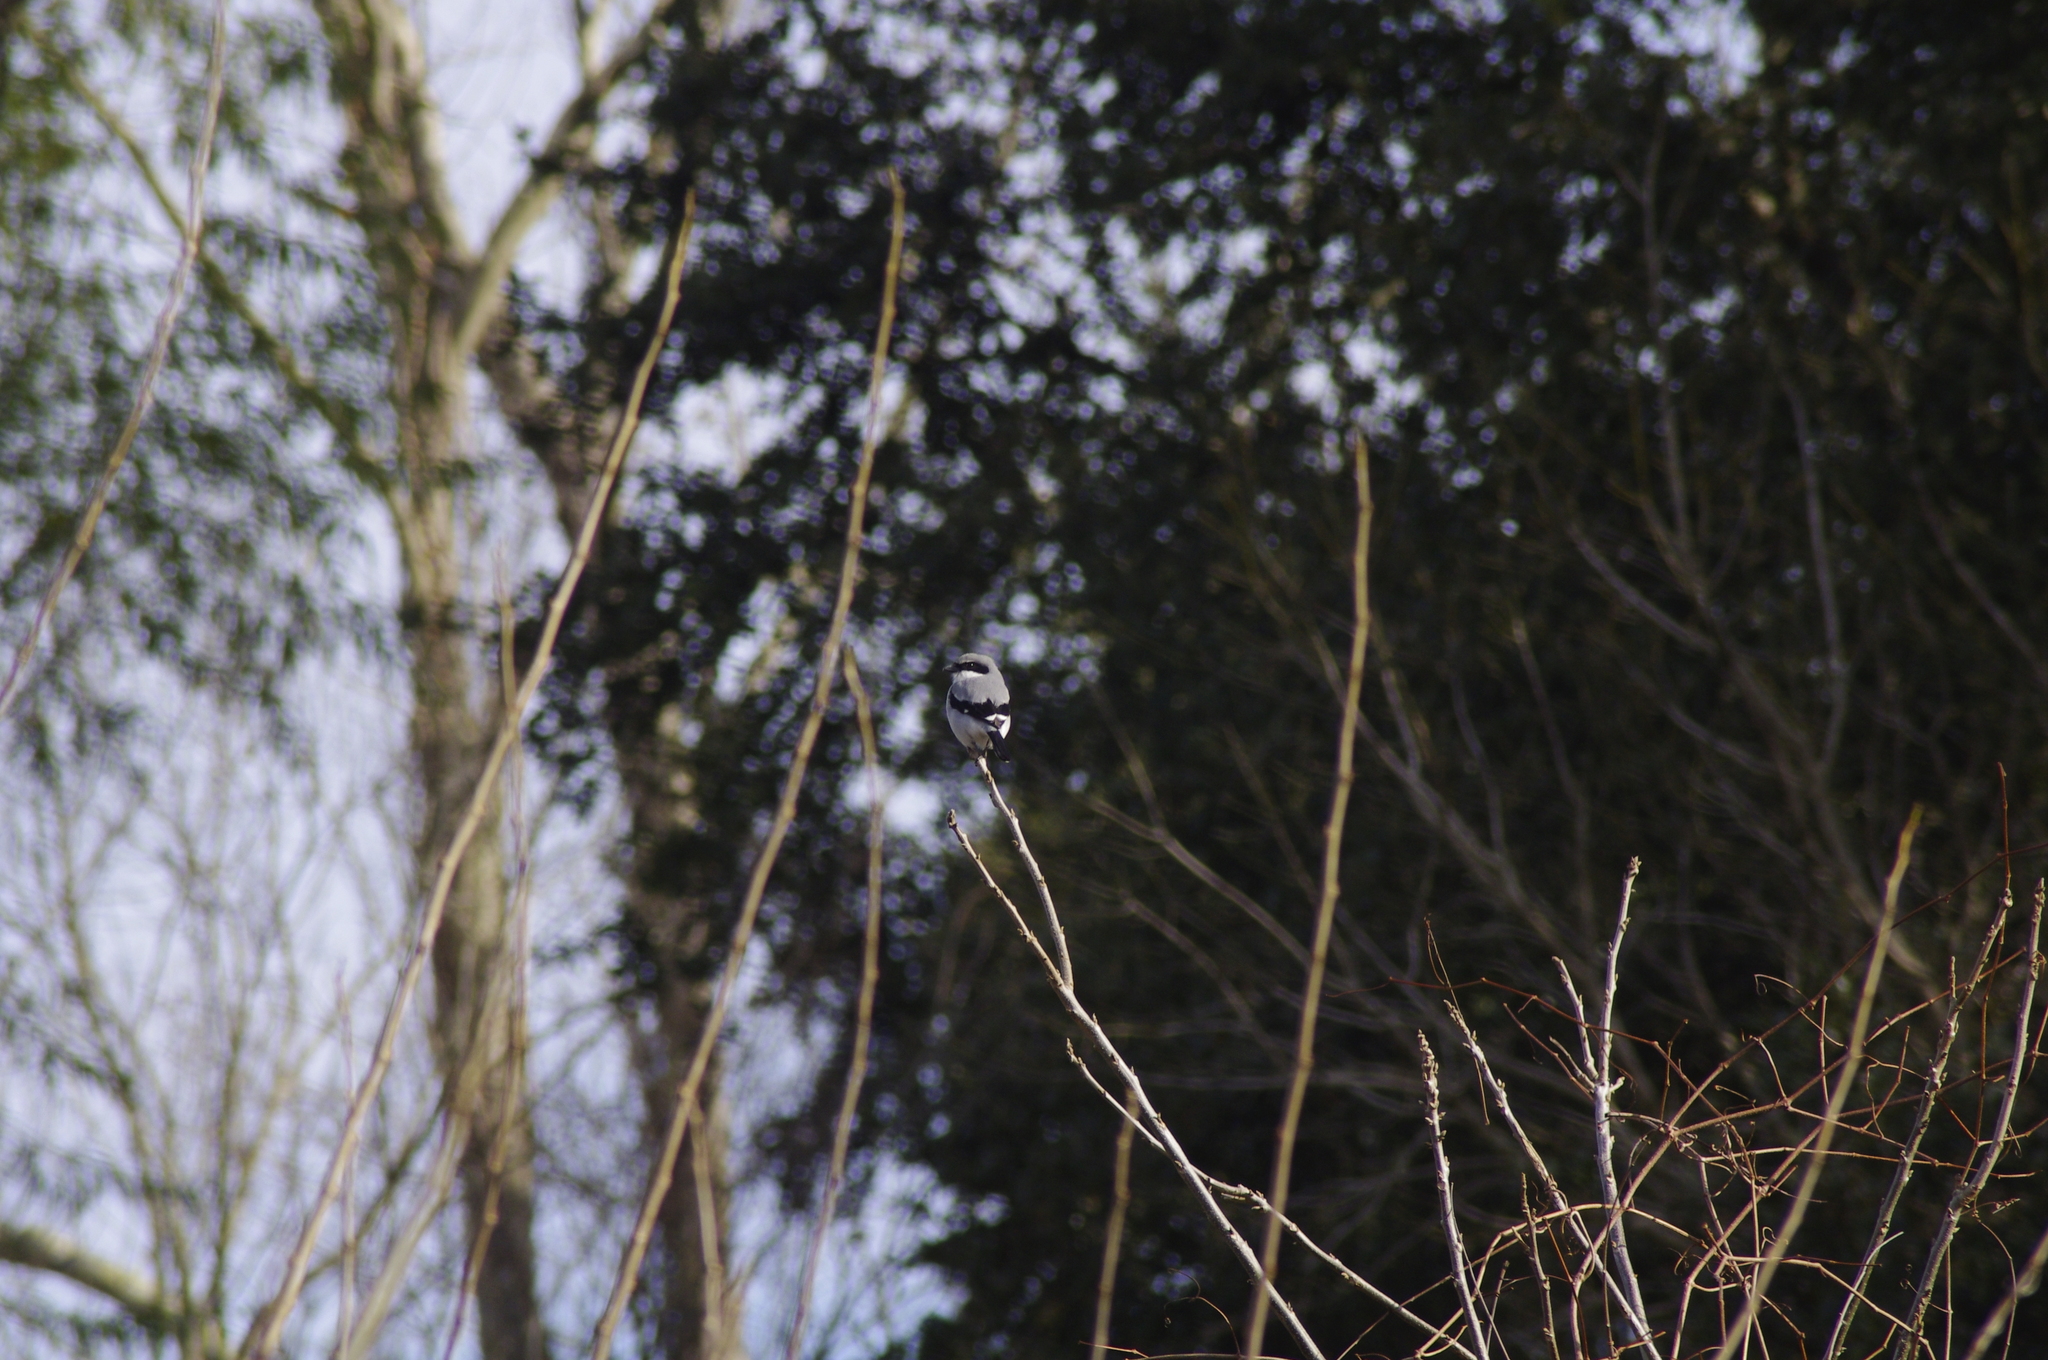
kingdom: Animalia
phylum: Chordata
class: Aves
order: Passeriformes
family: Laniidae
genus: Lanius
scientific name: Lanius ludovicianus
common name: Loggerhead shrike
